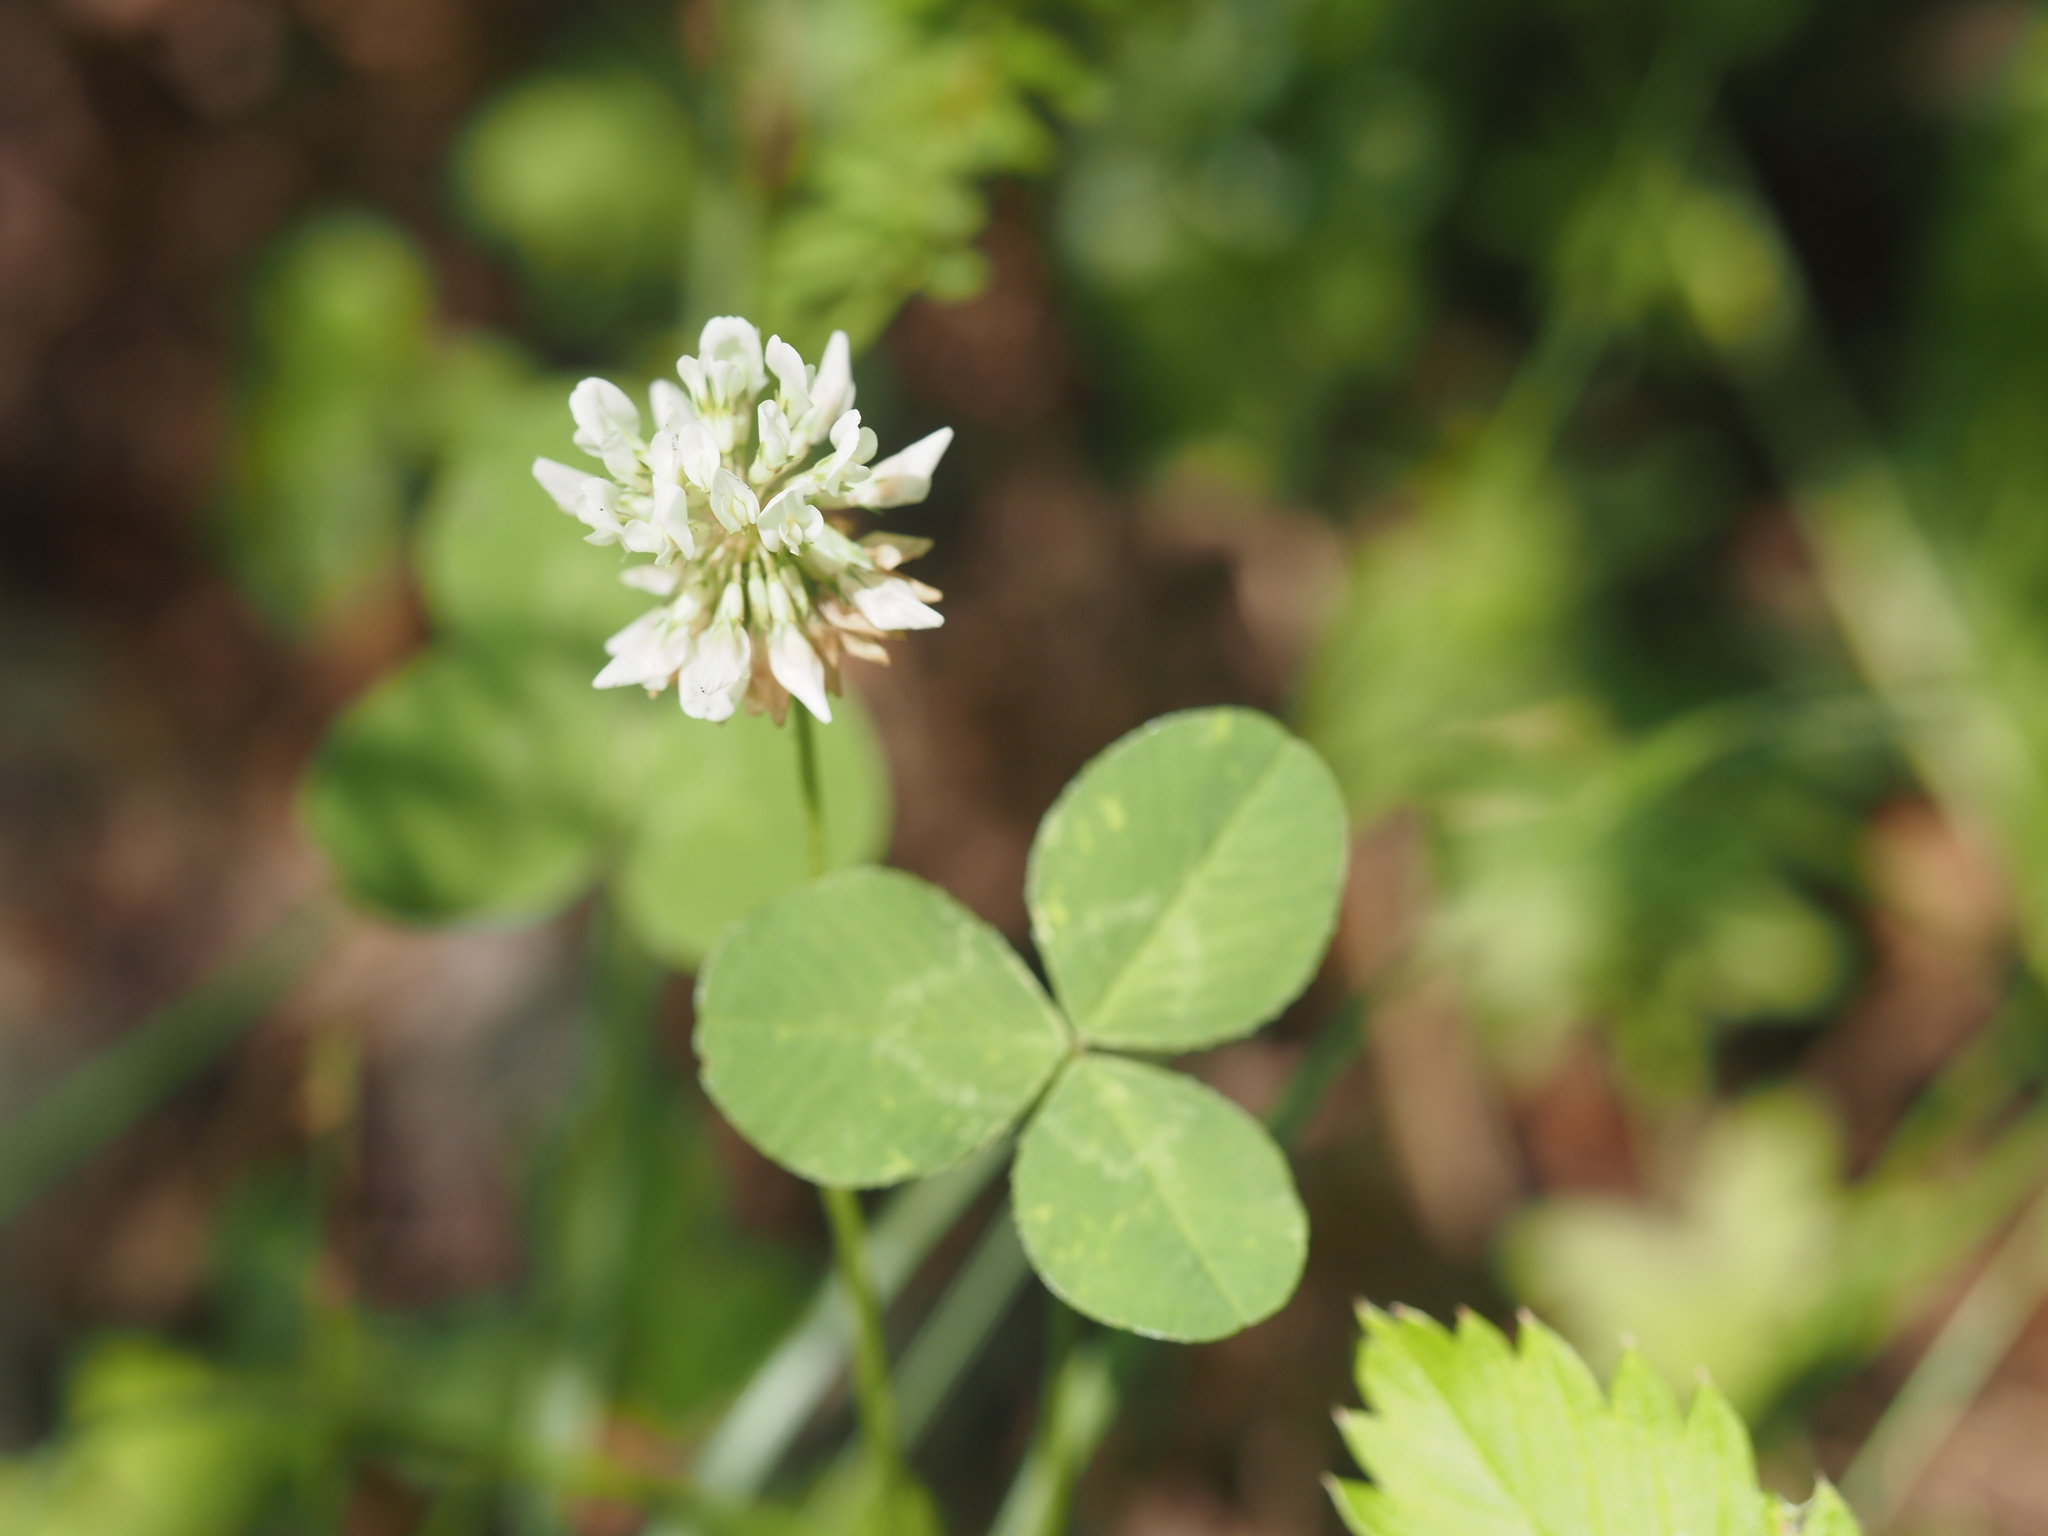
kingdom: Plantae
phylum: Tracheophyta
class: Magnoliopsida
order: Fabales
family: Fabaceae
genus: Trifolium
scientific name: Trifolium repens
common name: White clover
